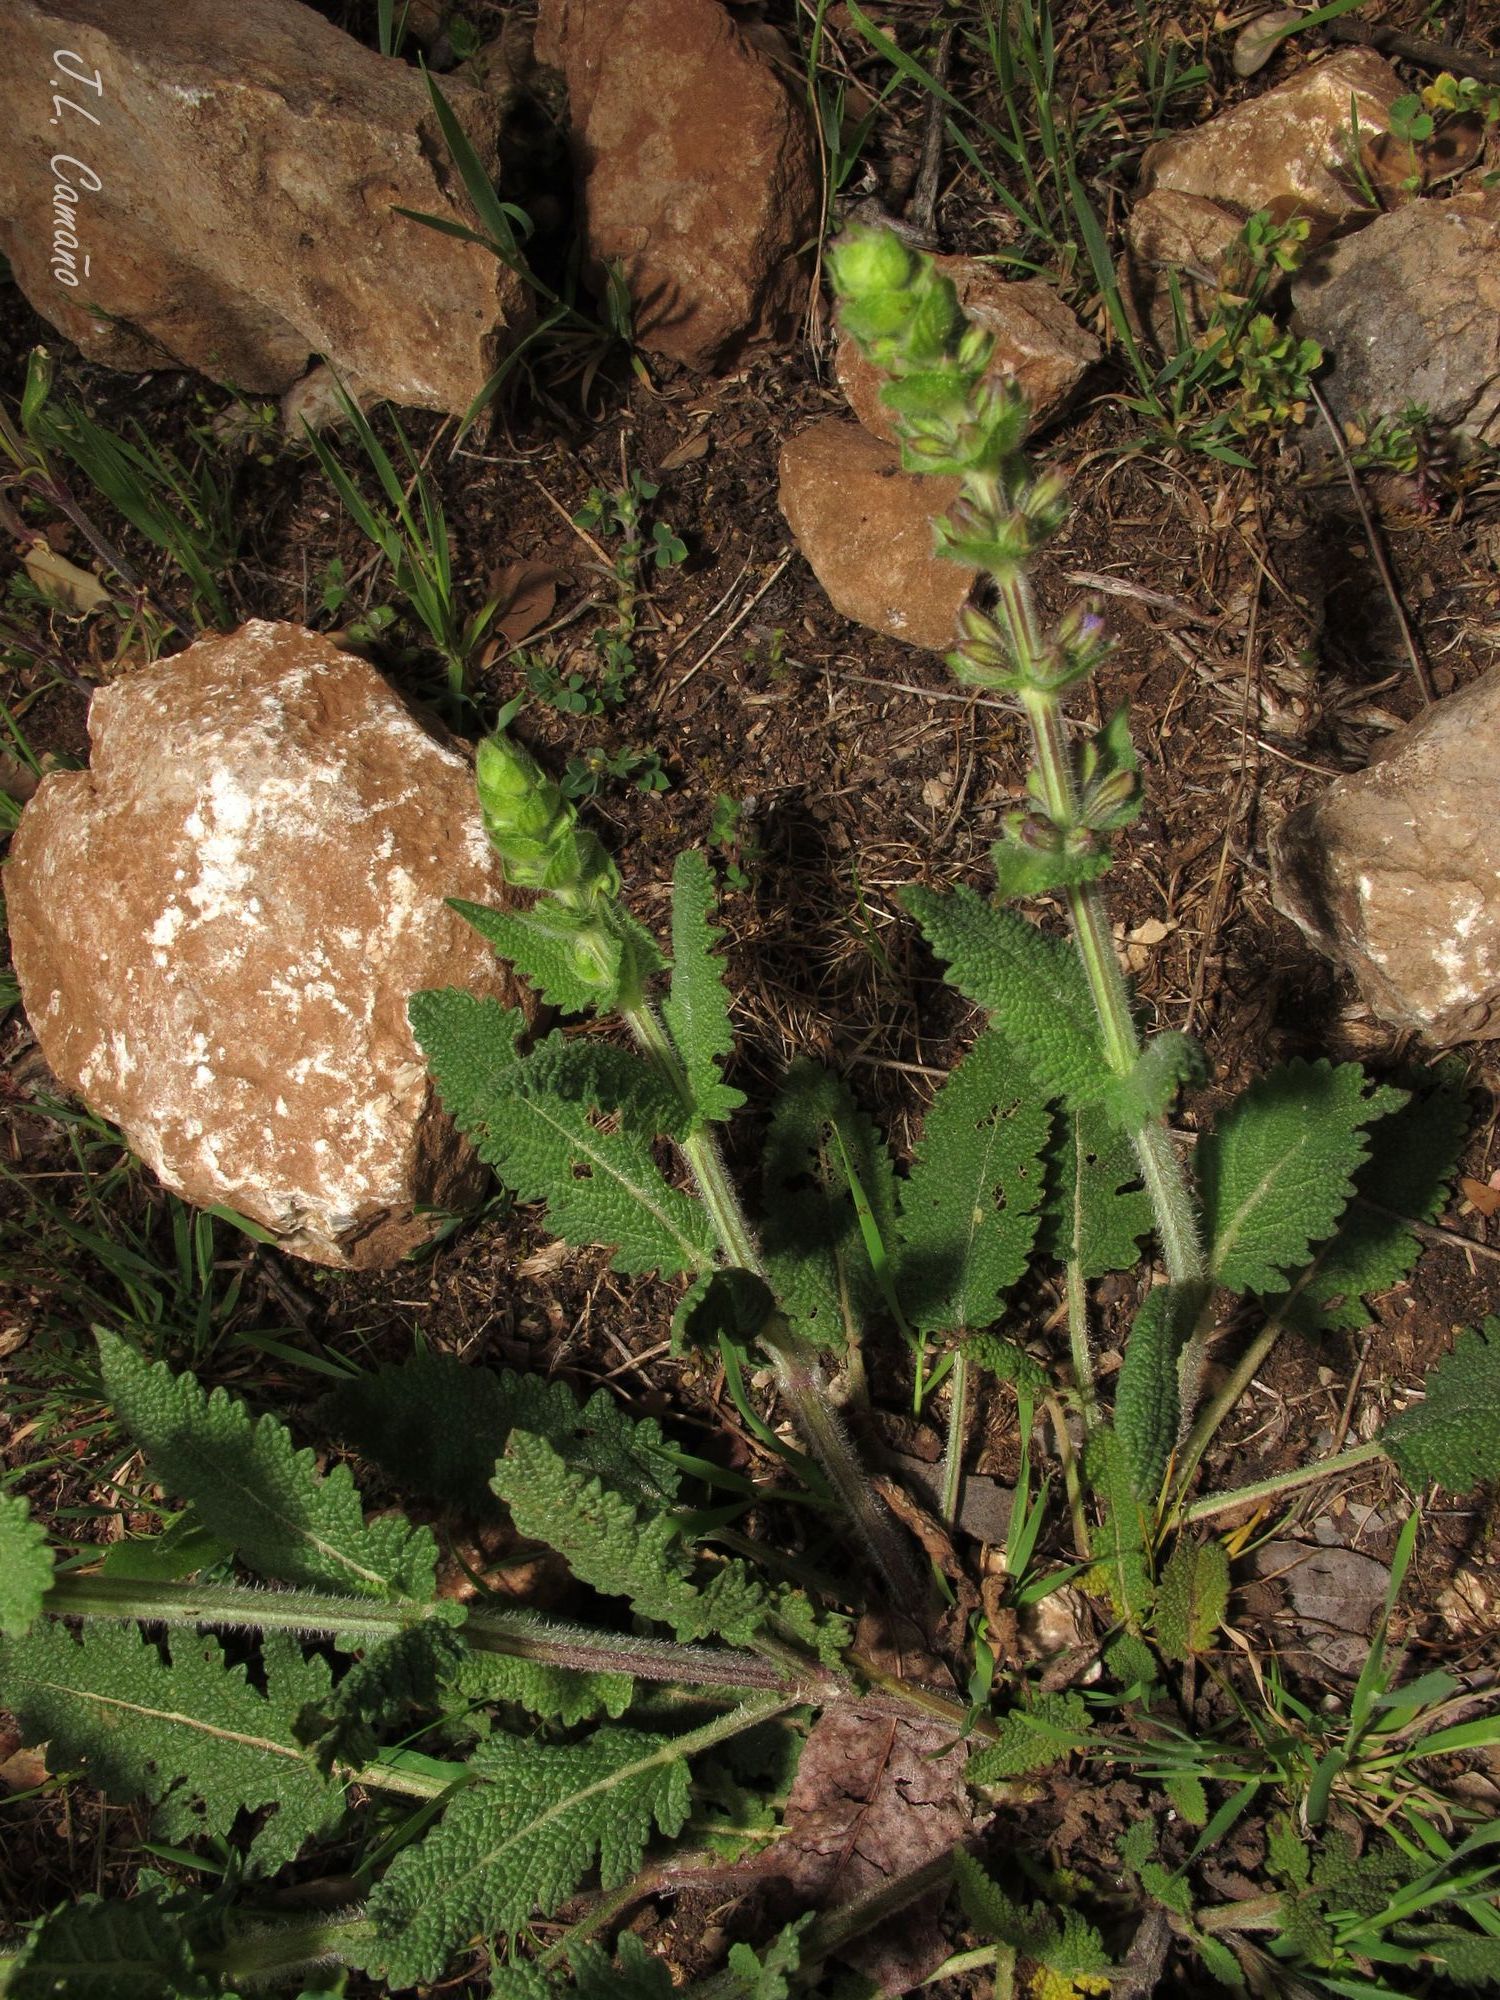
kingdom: Plantae
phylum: Tracheophyta
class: Magnoliopsida
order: Lamiales
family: Lamiaceae
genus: Salvia
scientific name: Salvia verbenaca
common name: Wild clary
